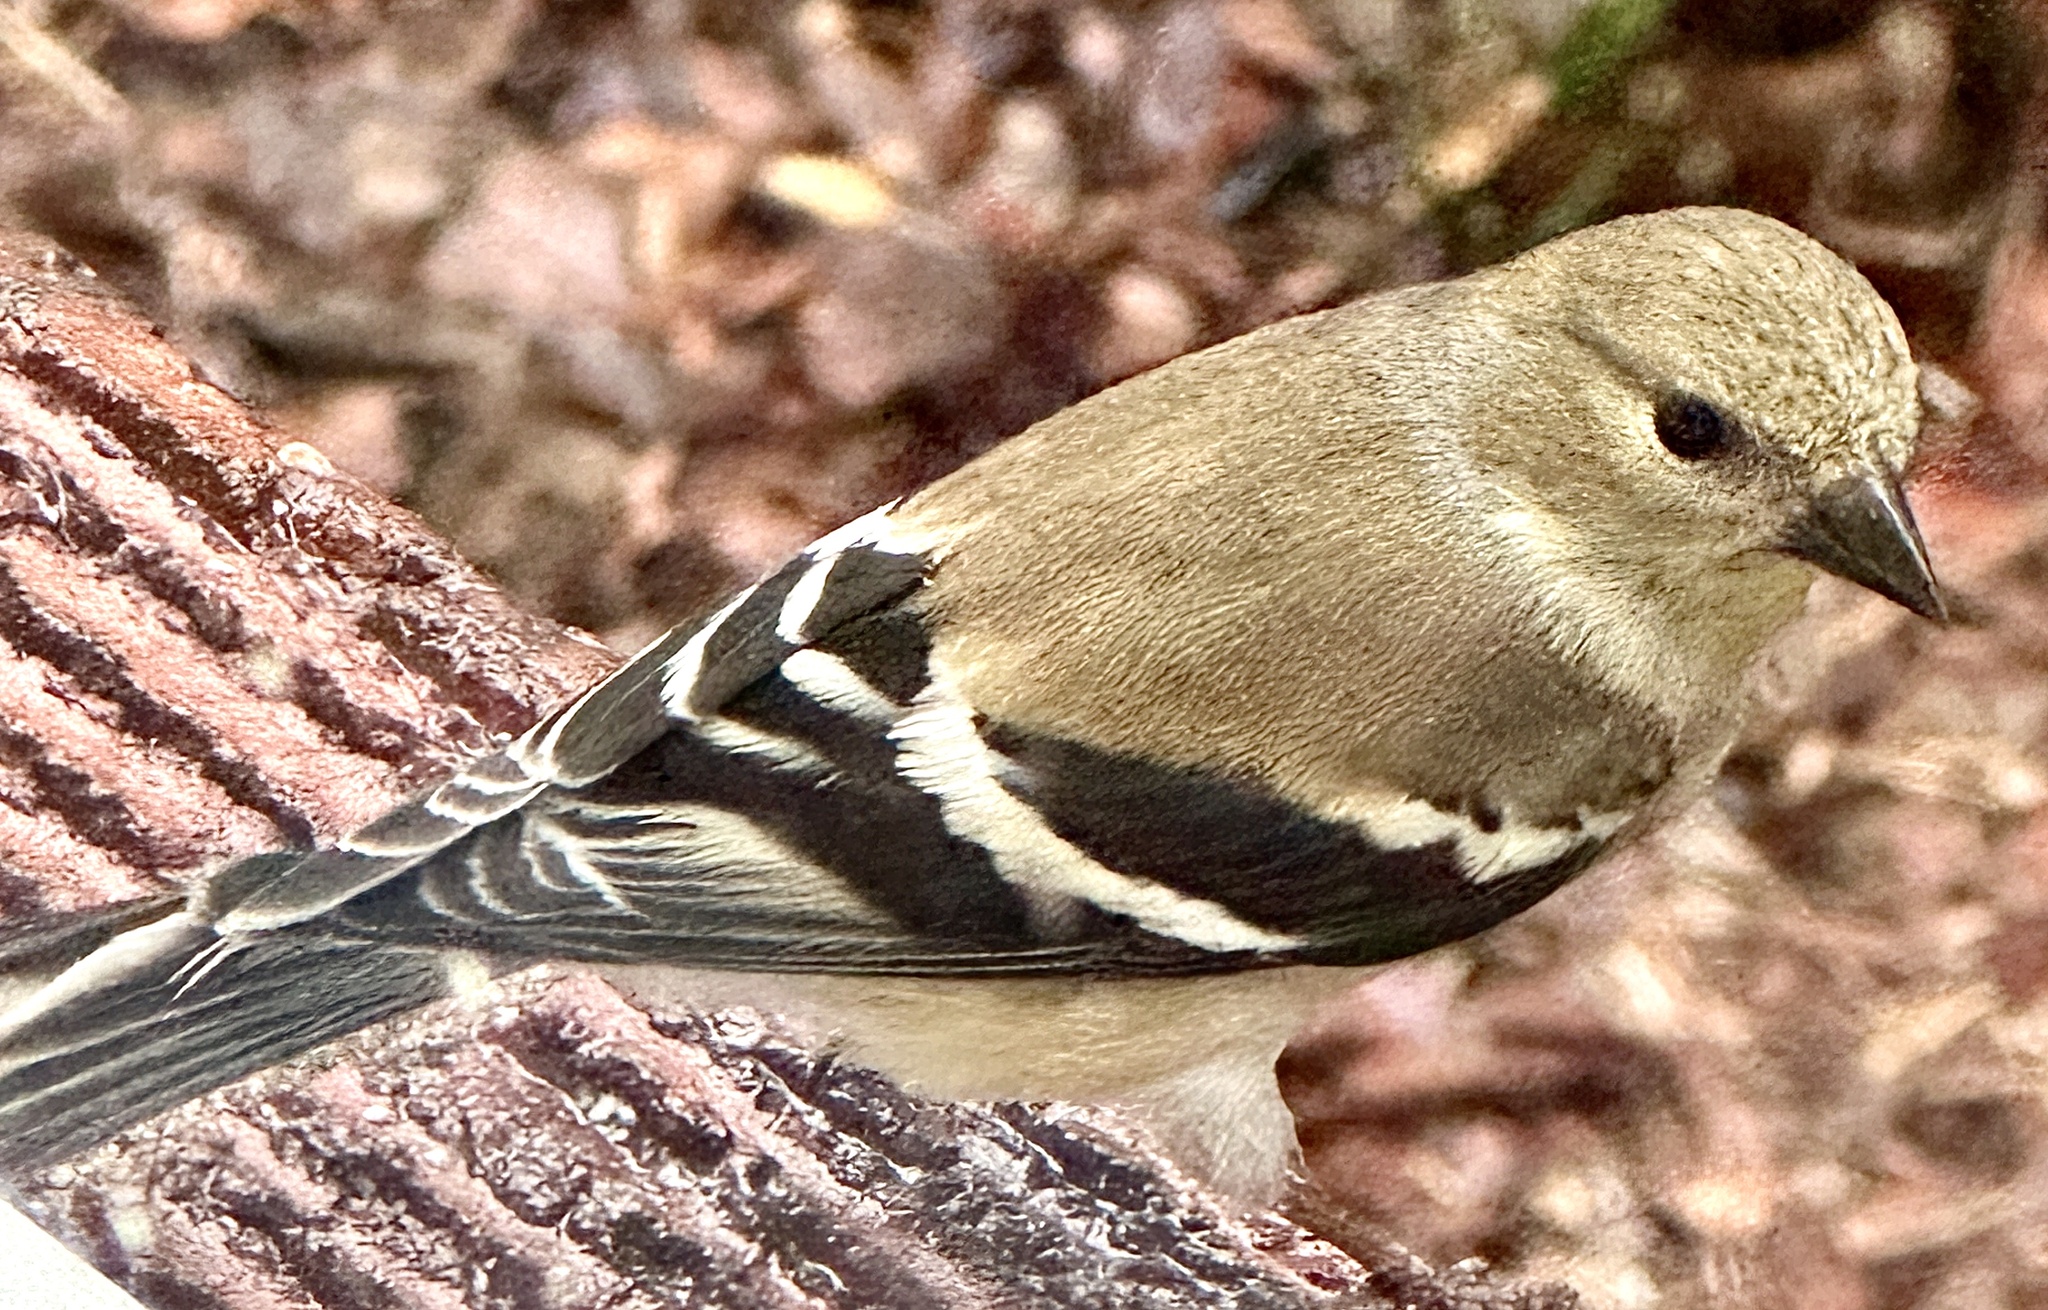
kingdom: Animalia
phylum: Chordata
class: Aves
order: Passeriformes
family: Fringillidae
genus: Spinus
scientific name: Spinus tristis
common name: American goldfinch
